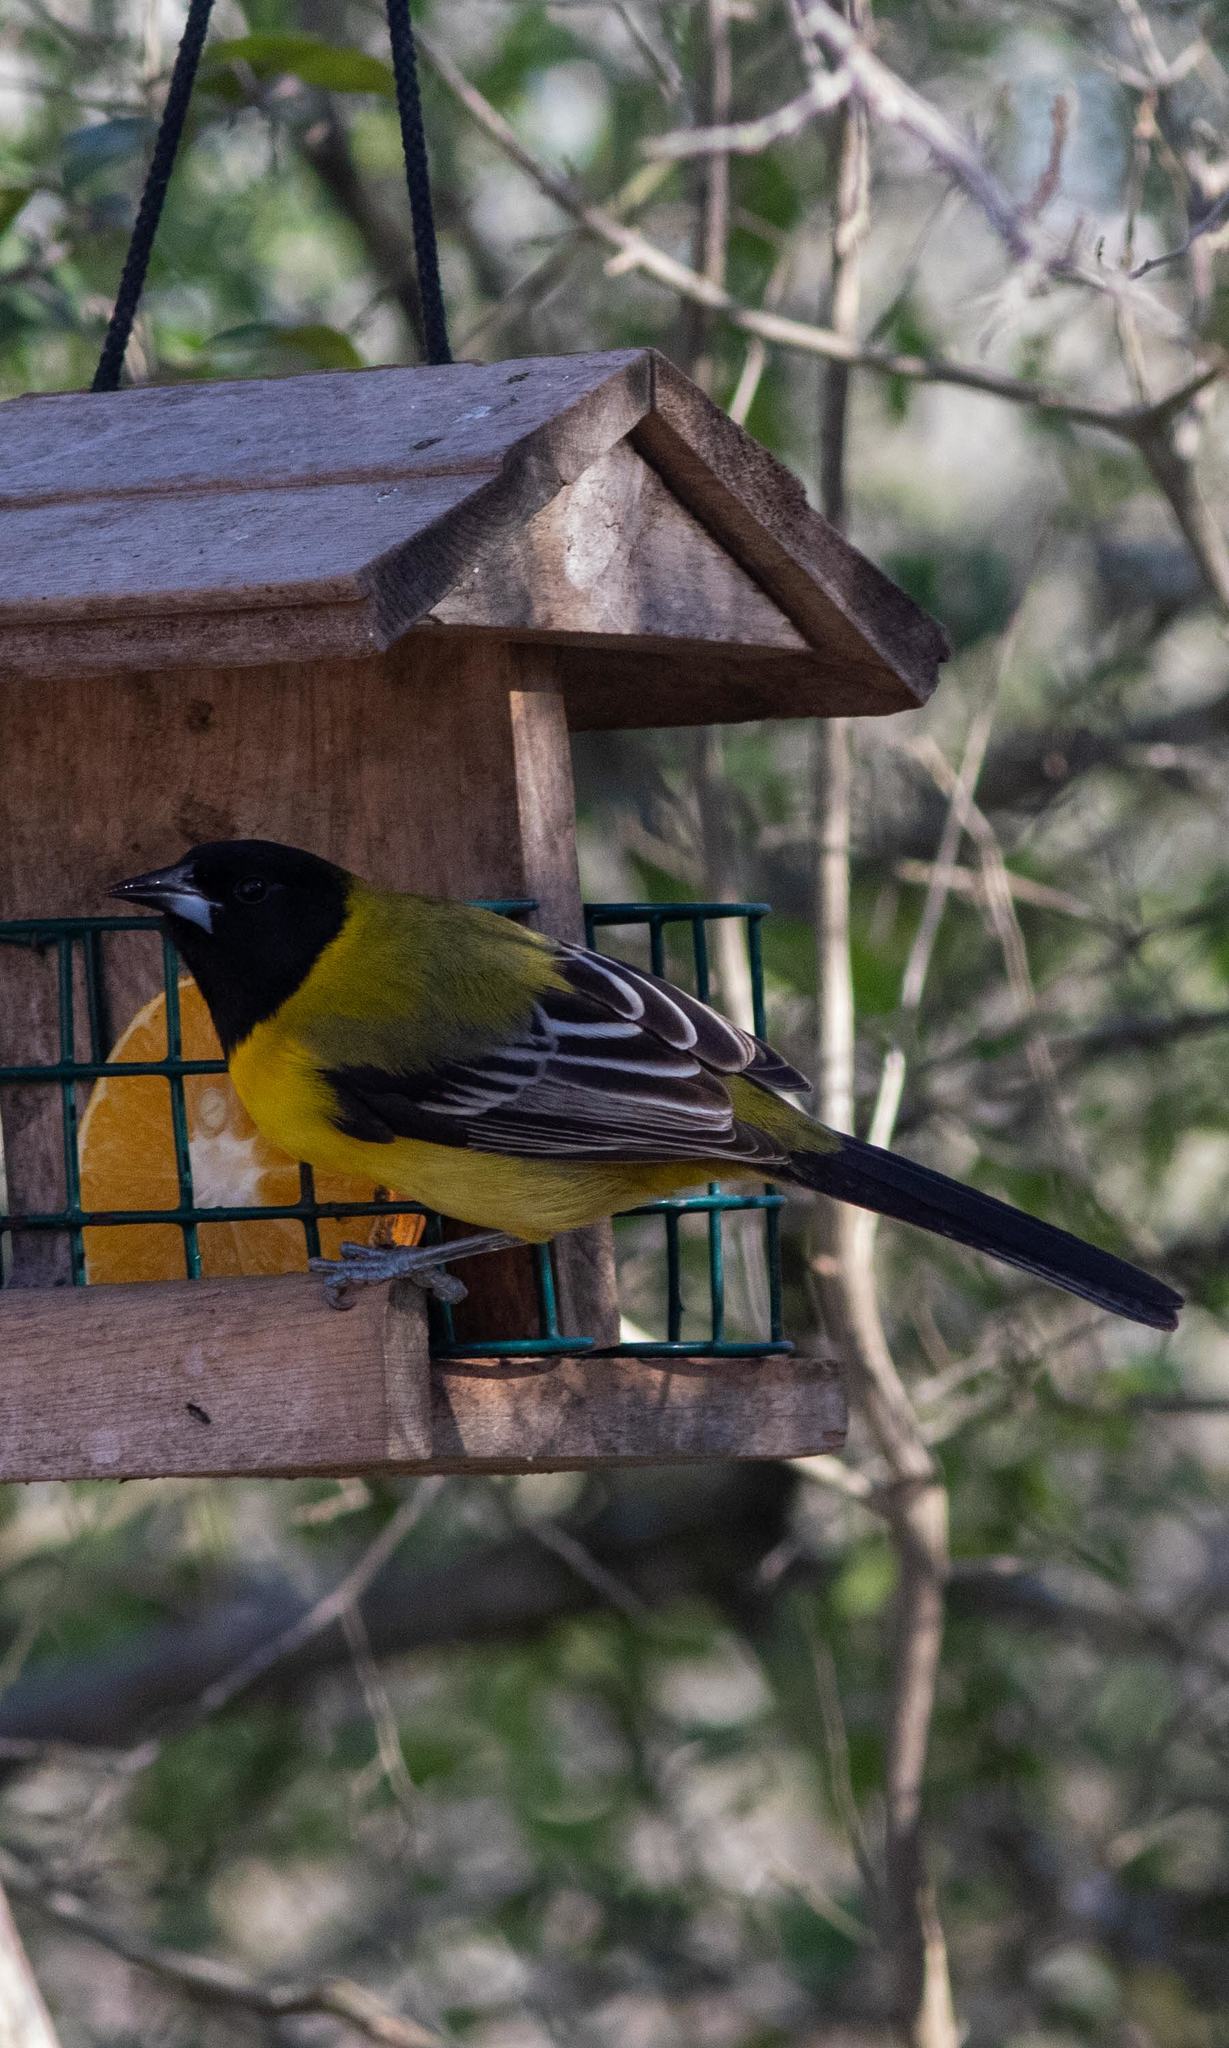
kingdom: Animalia
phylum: Chordata
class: Aves
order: Passeriformes
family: Icteridae
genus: Icterus
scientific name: Icterus graduacauda
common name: Audubon's oriole
